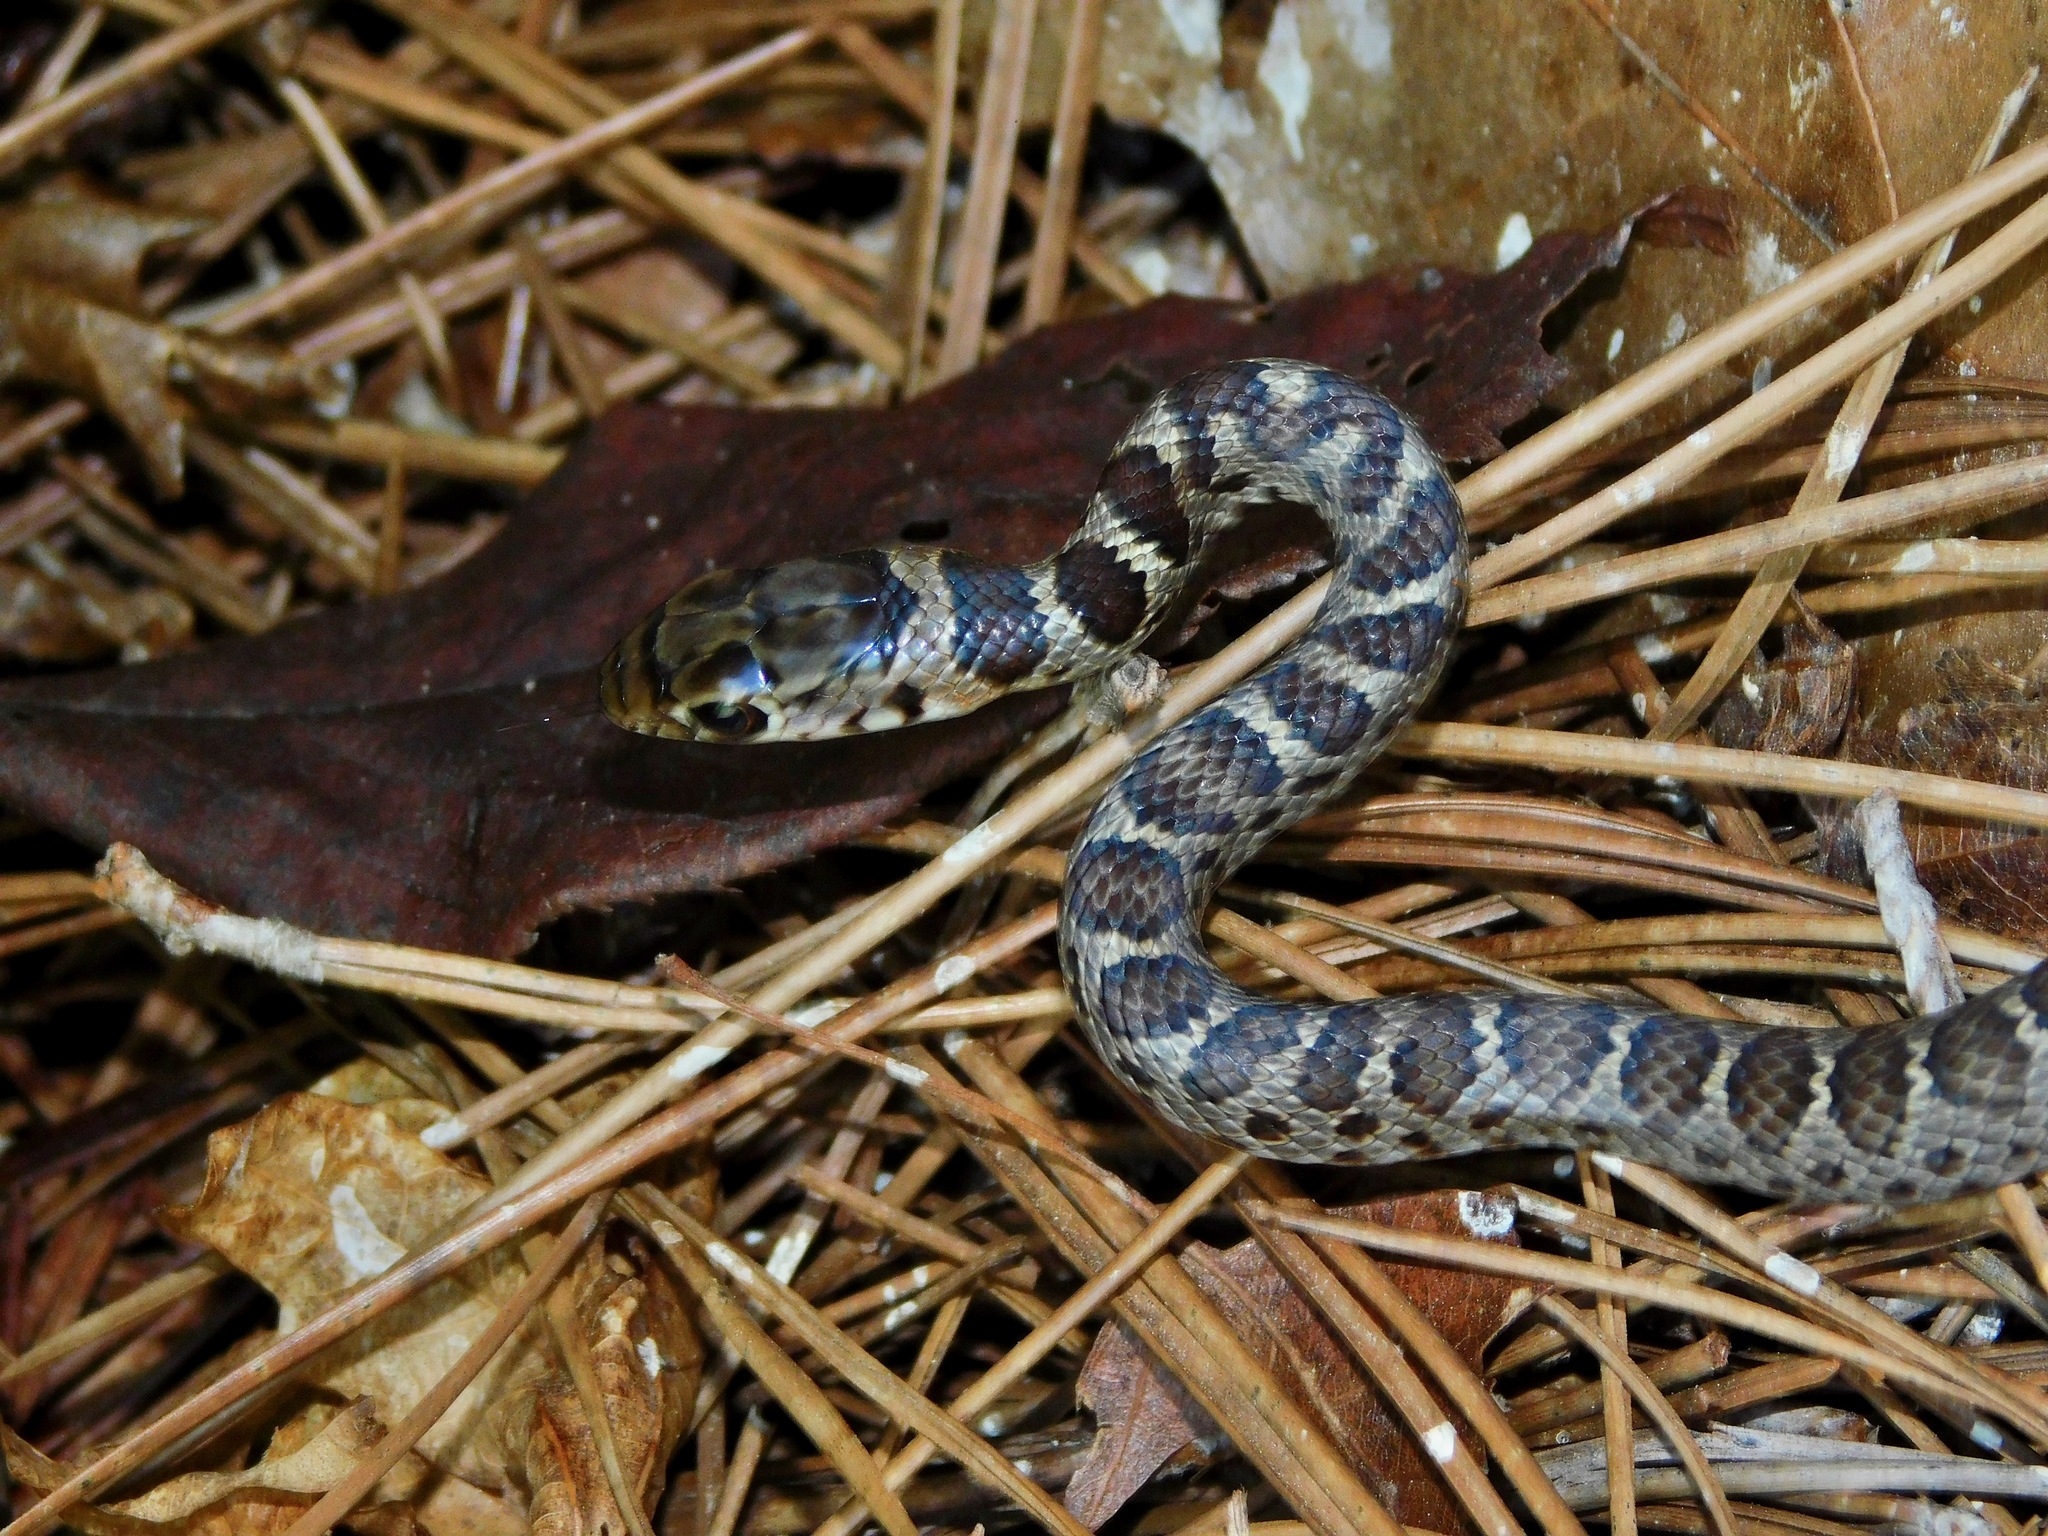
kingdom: Animalia
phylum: Chordata
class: Squamata
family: Colubridae
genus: Coluber
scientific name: Coluber constrictor
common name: Eastern racer
